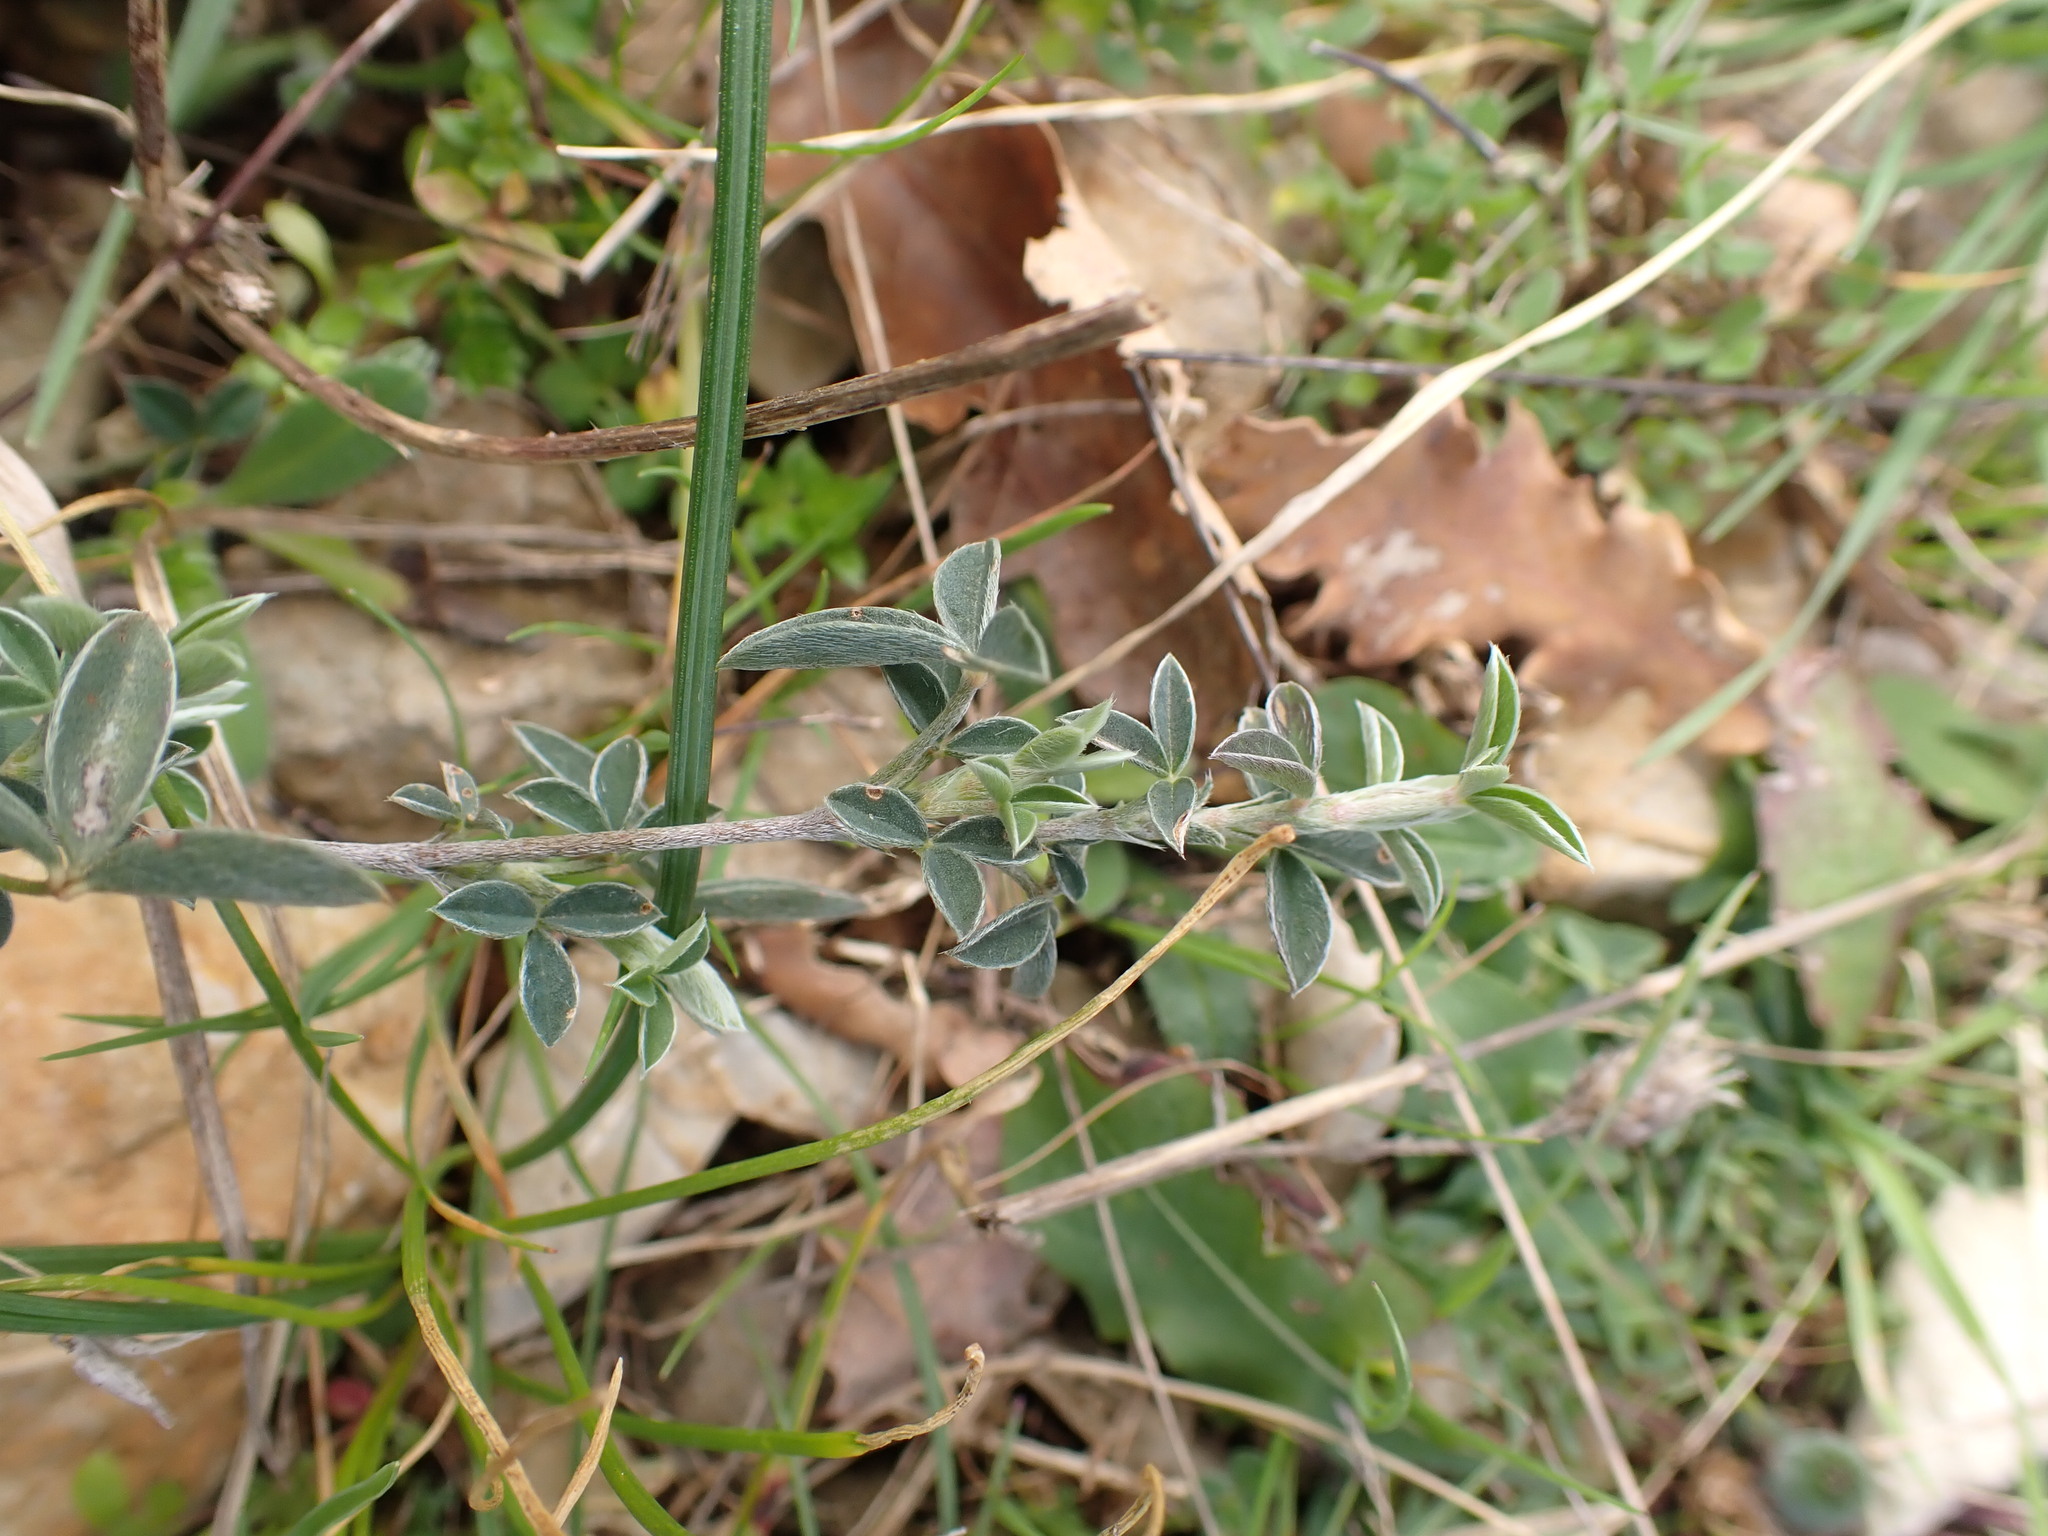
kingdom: Plantae
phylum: Tracheophyta
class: Magnoliopsida
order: Fabales
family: Fabaceae
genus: Argyrolobium
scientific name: Argyrolobium zanonii
